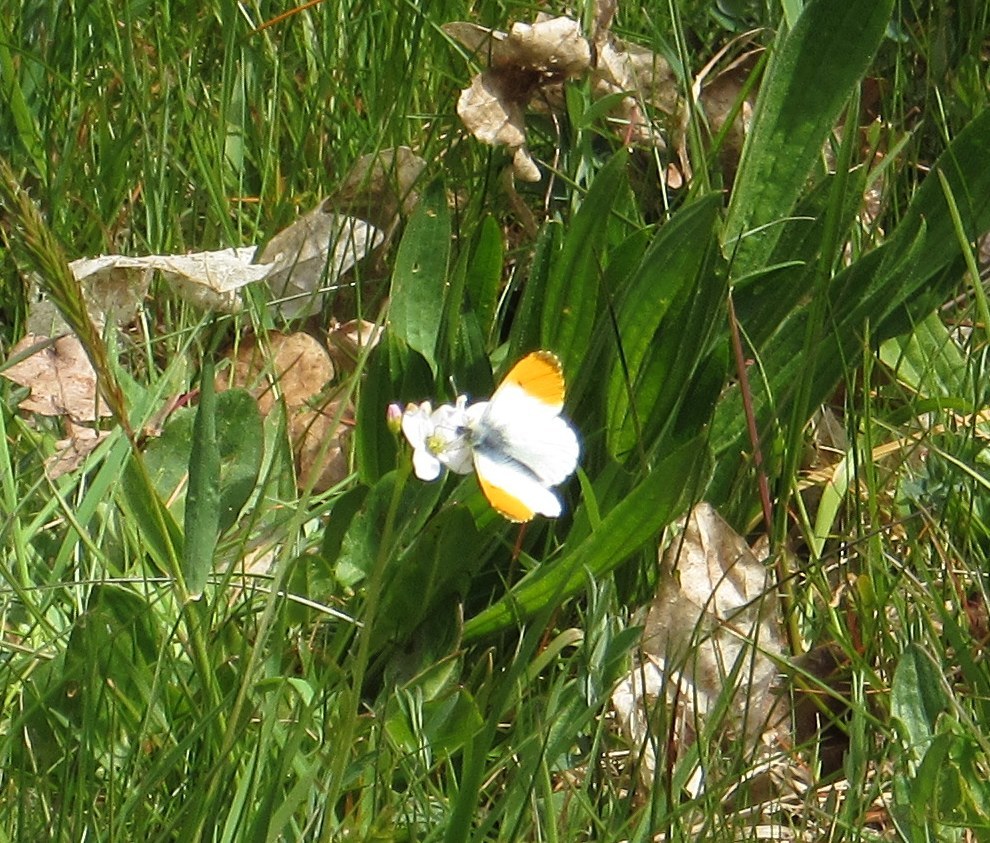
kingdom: Animalia
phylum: Arthropoda
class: Insecta
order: Lepidoptera
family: Pieridae
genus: Anthocharis
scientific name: Anthocharis cardamines
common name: Orange-tip
